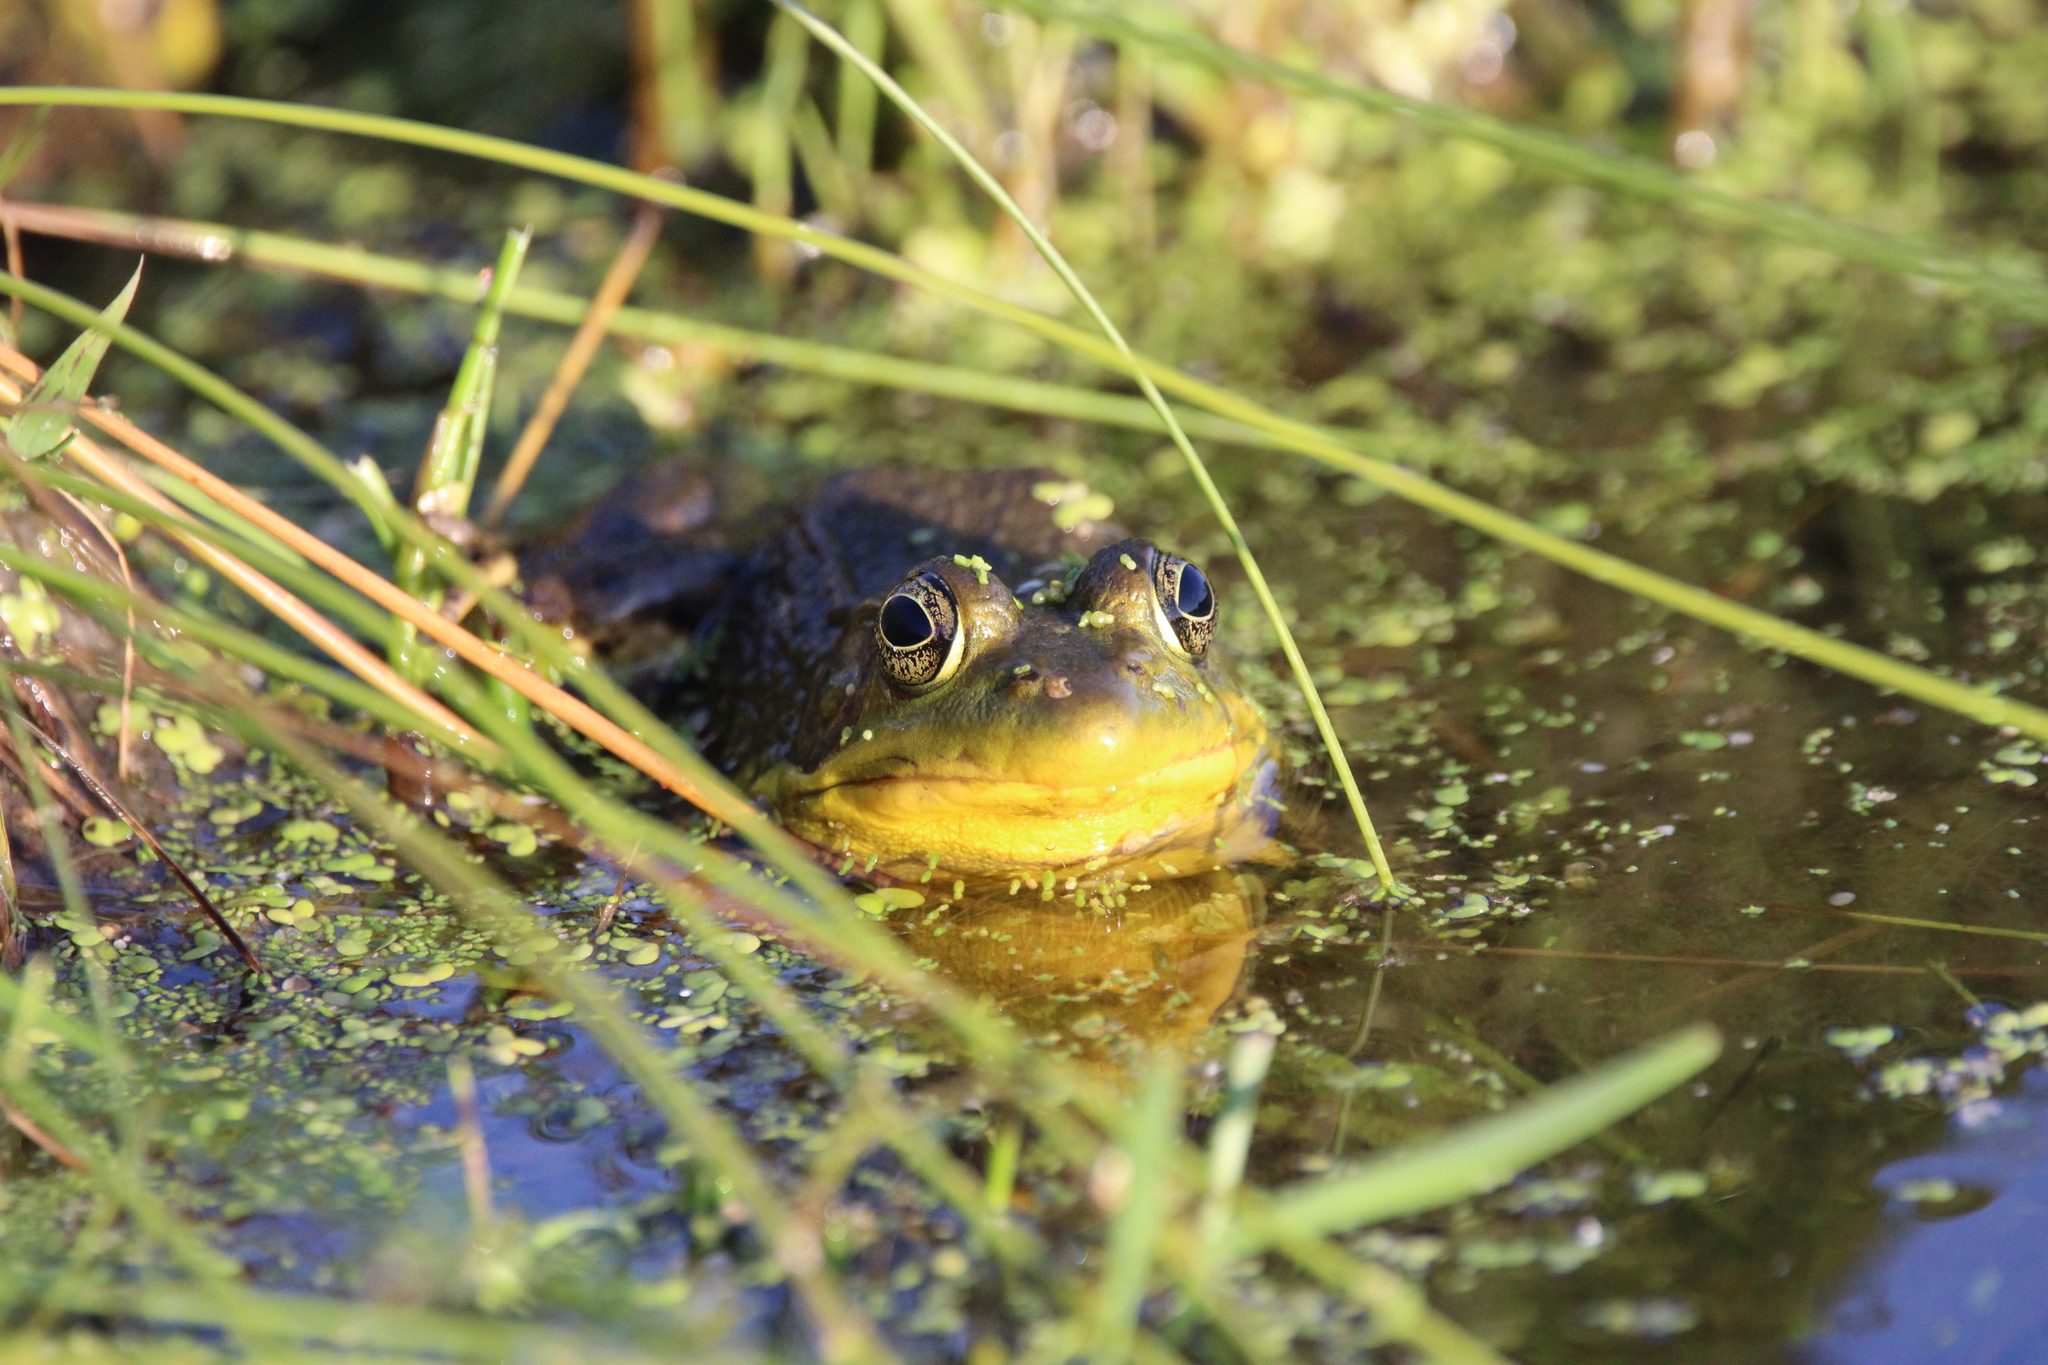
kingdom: Animalia
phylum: Chordata
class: Amphibia
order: Anura
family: Ranidae
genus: Lithobates
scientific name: Lithobates catesbeianus
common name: American bullfrog
